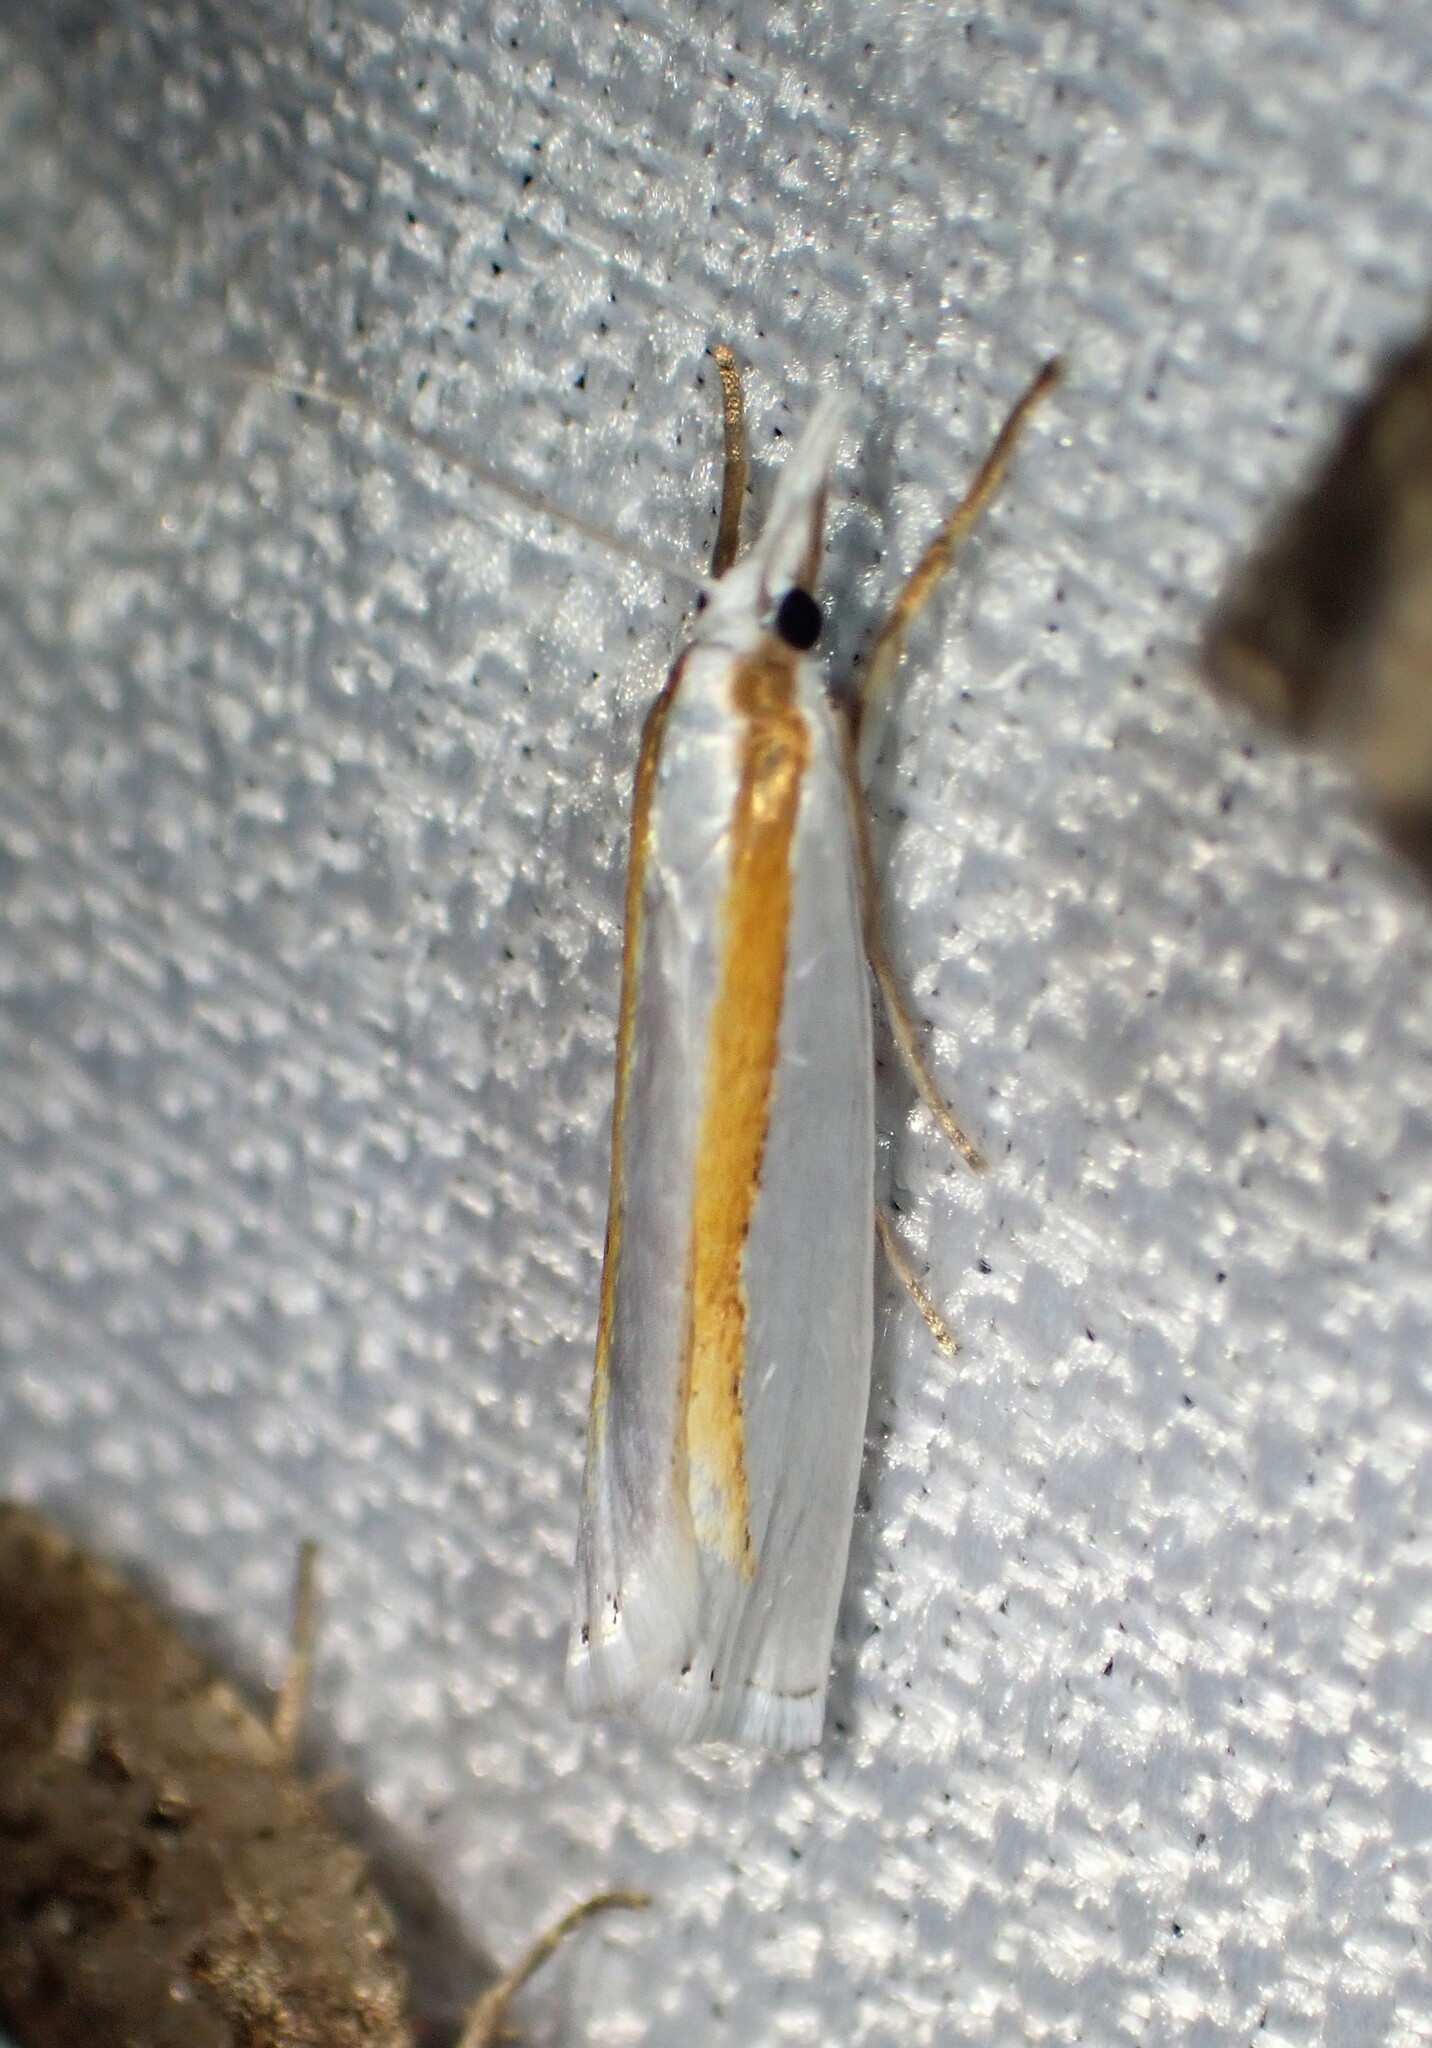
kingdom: Animalia
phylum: Arthropoda
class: Insecta
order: Lepidoptera
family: Crambidae
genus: Crambus
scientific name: Crambus girardellus
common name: Girard's grass-veneer
